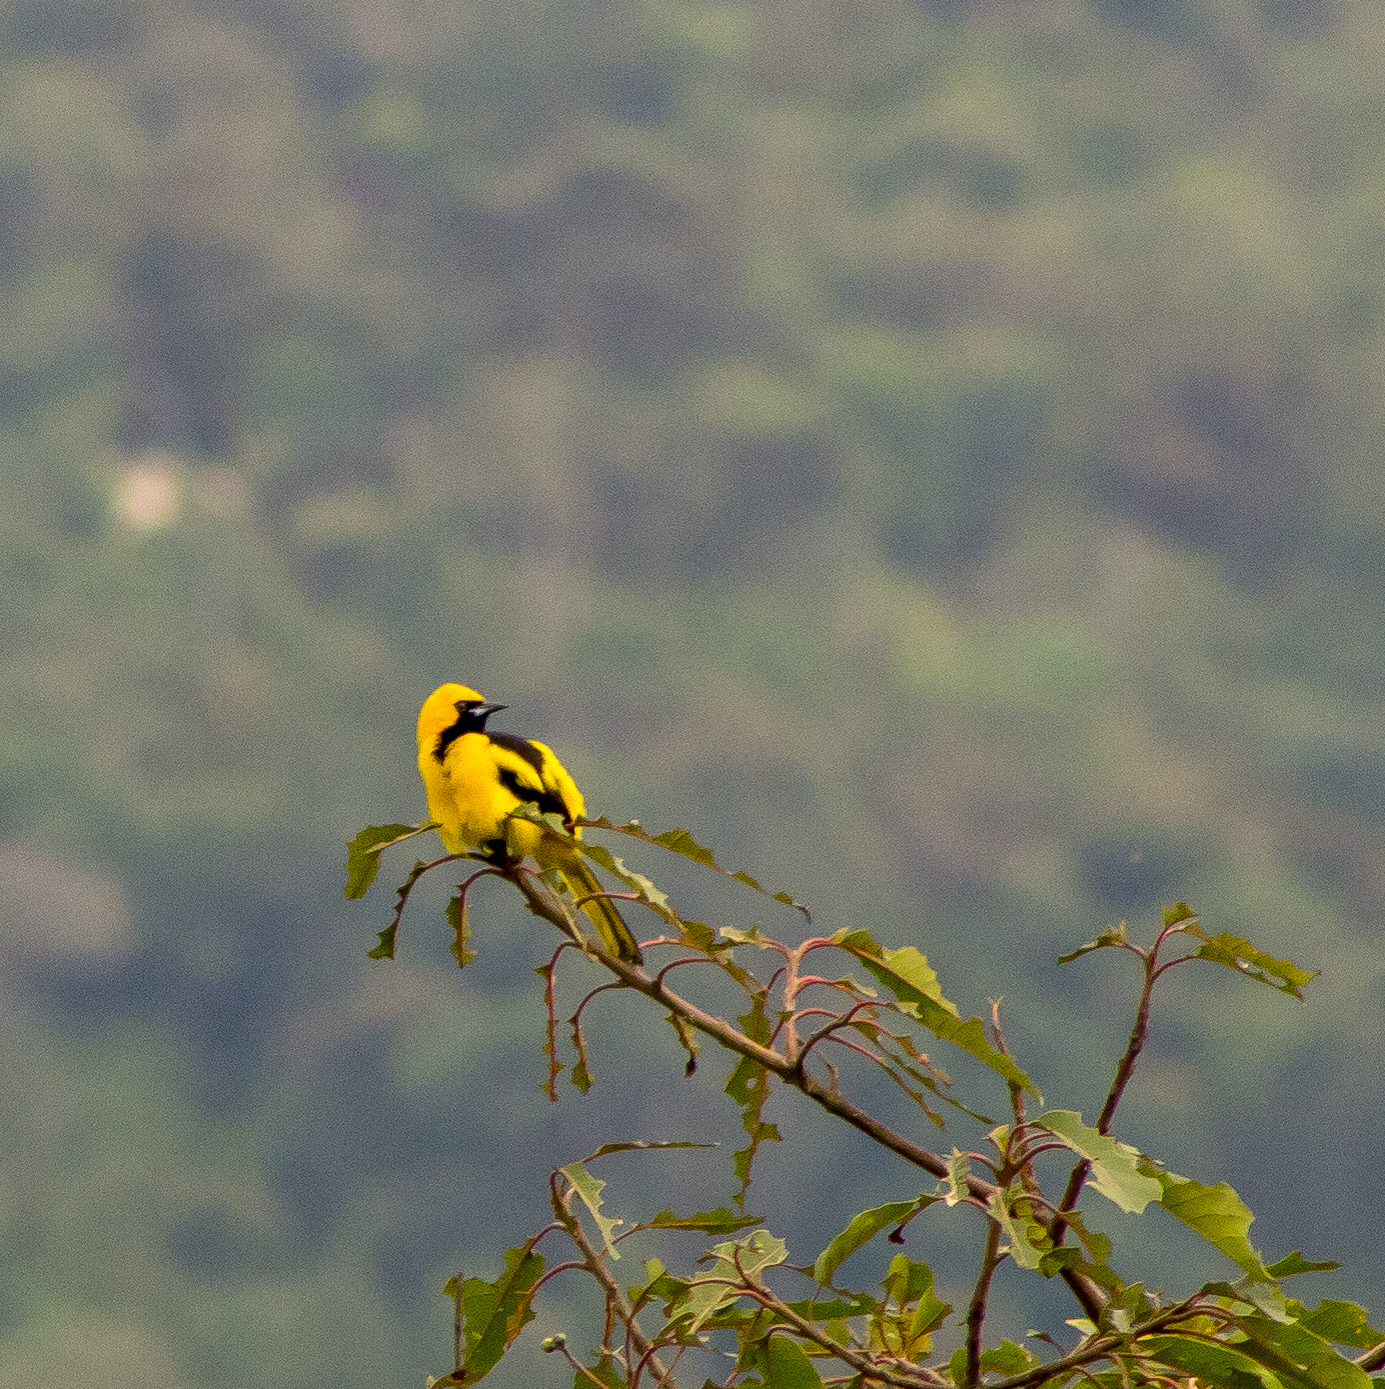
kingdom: Animalia
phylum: Chordata
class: Aves
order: Passeriformes
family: Icteridae
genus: Icterus
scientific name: Icterus mesomelas
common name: Yellow-tailed oriole
